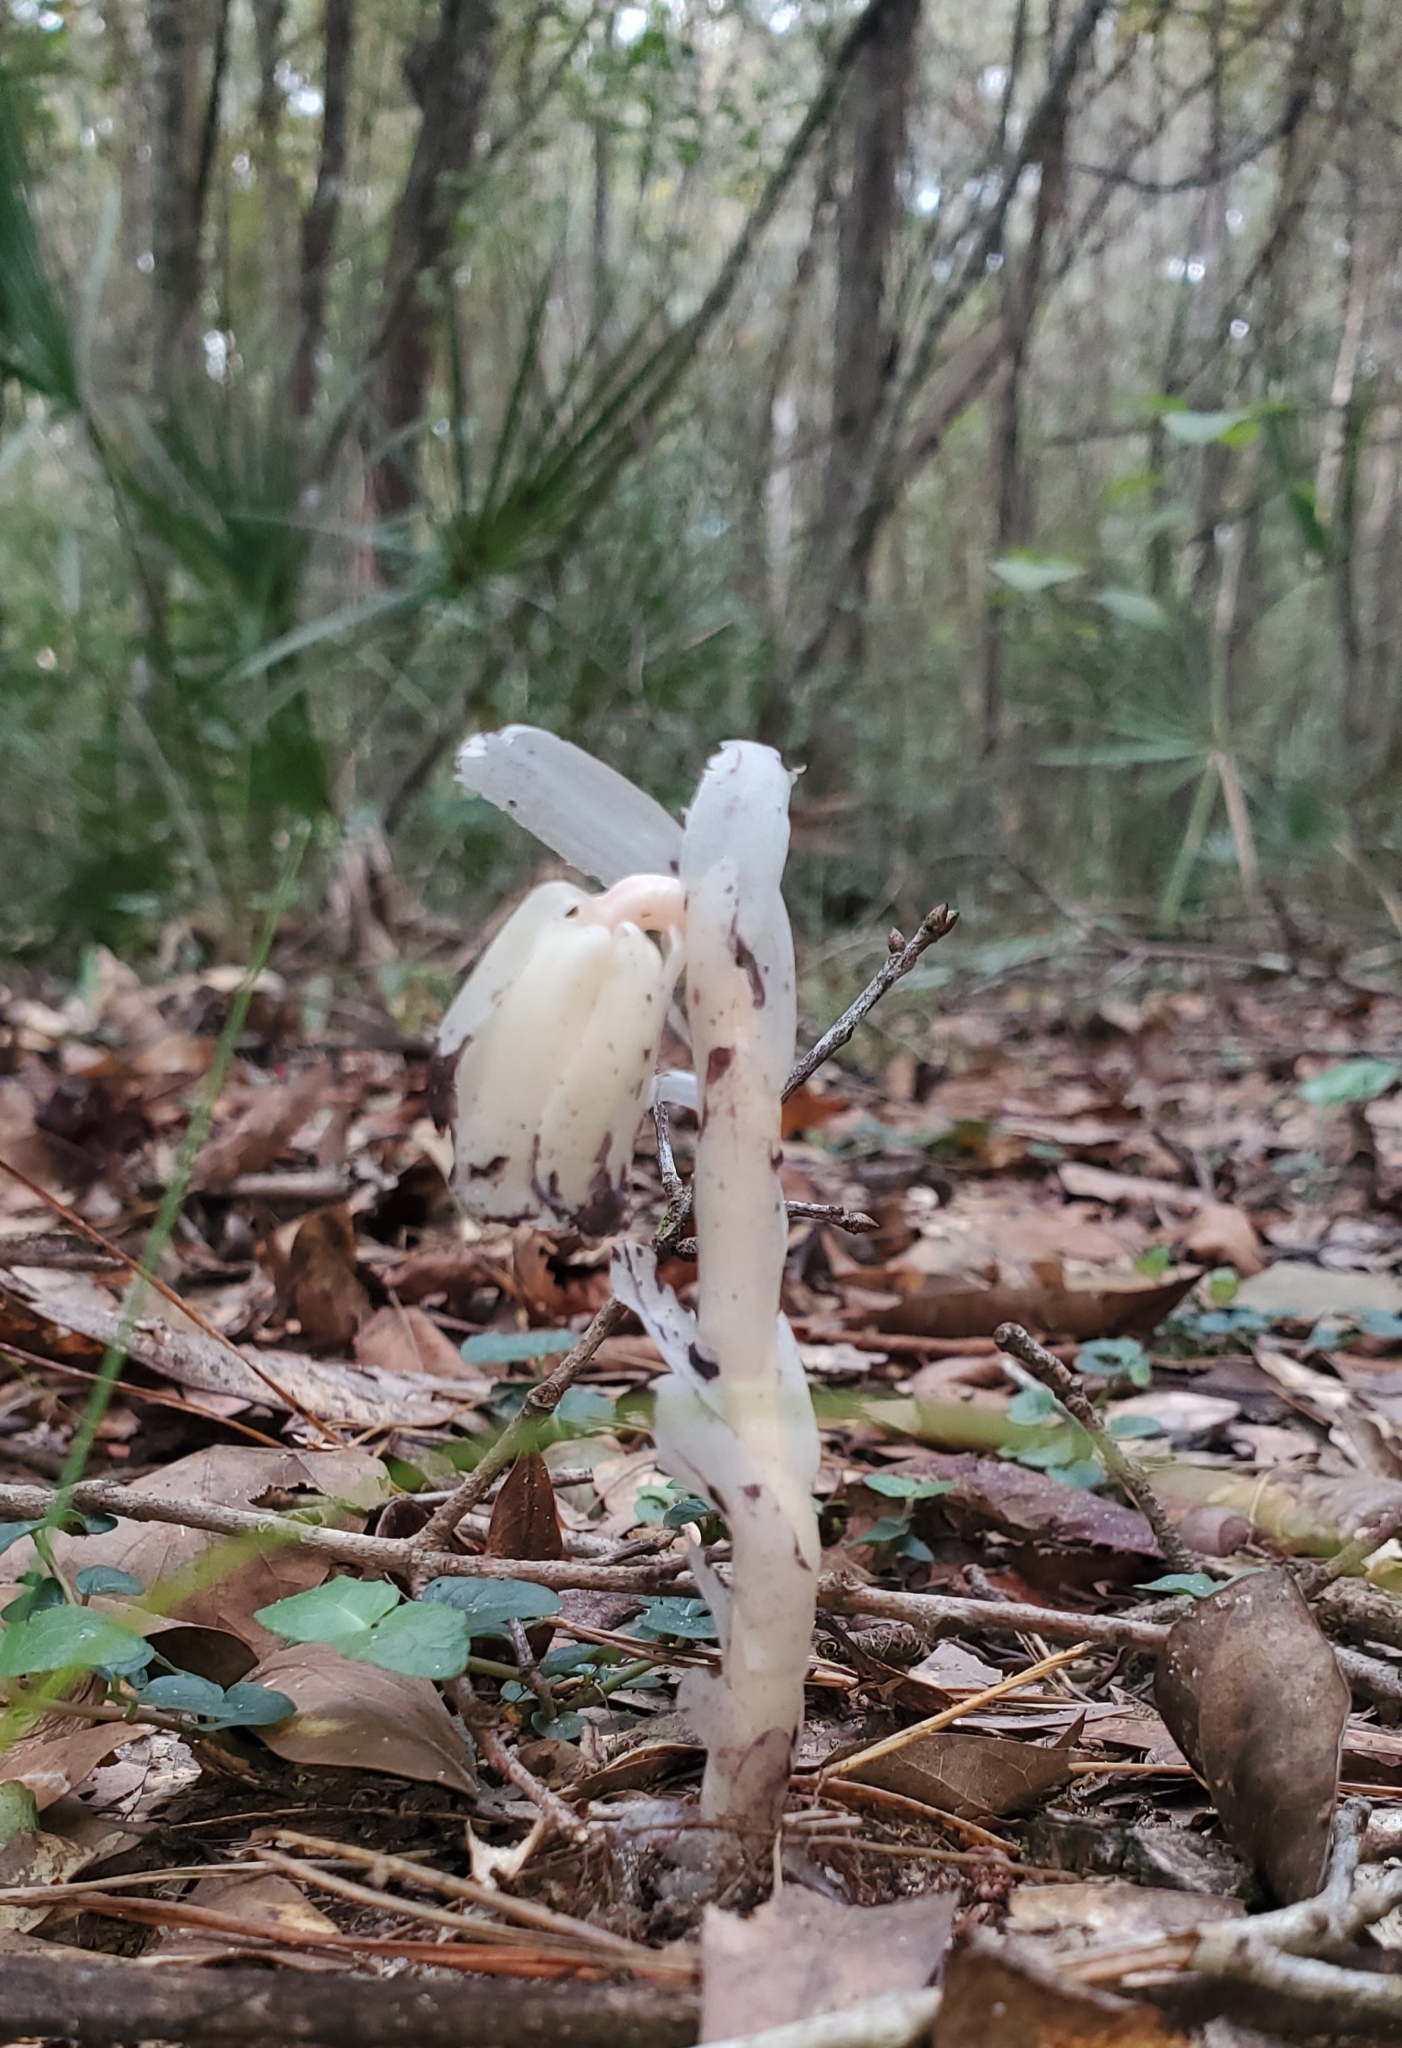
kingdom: Plantae
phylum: Tracheophyta
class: Magnoliopsida
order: Ericales
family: Ericaceae
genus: Monotropa
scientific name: Monotropa uniflora
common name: Convulsion root
